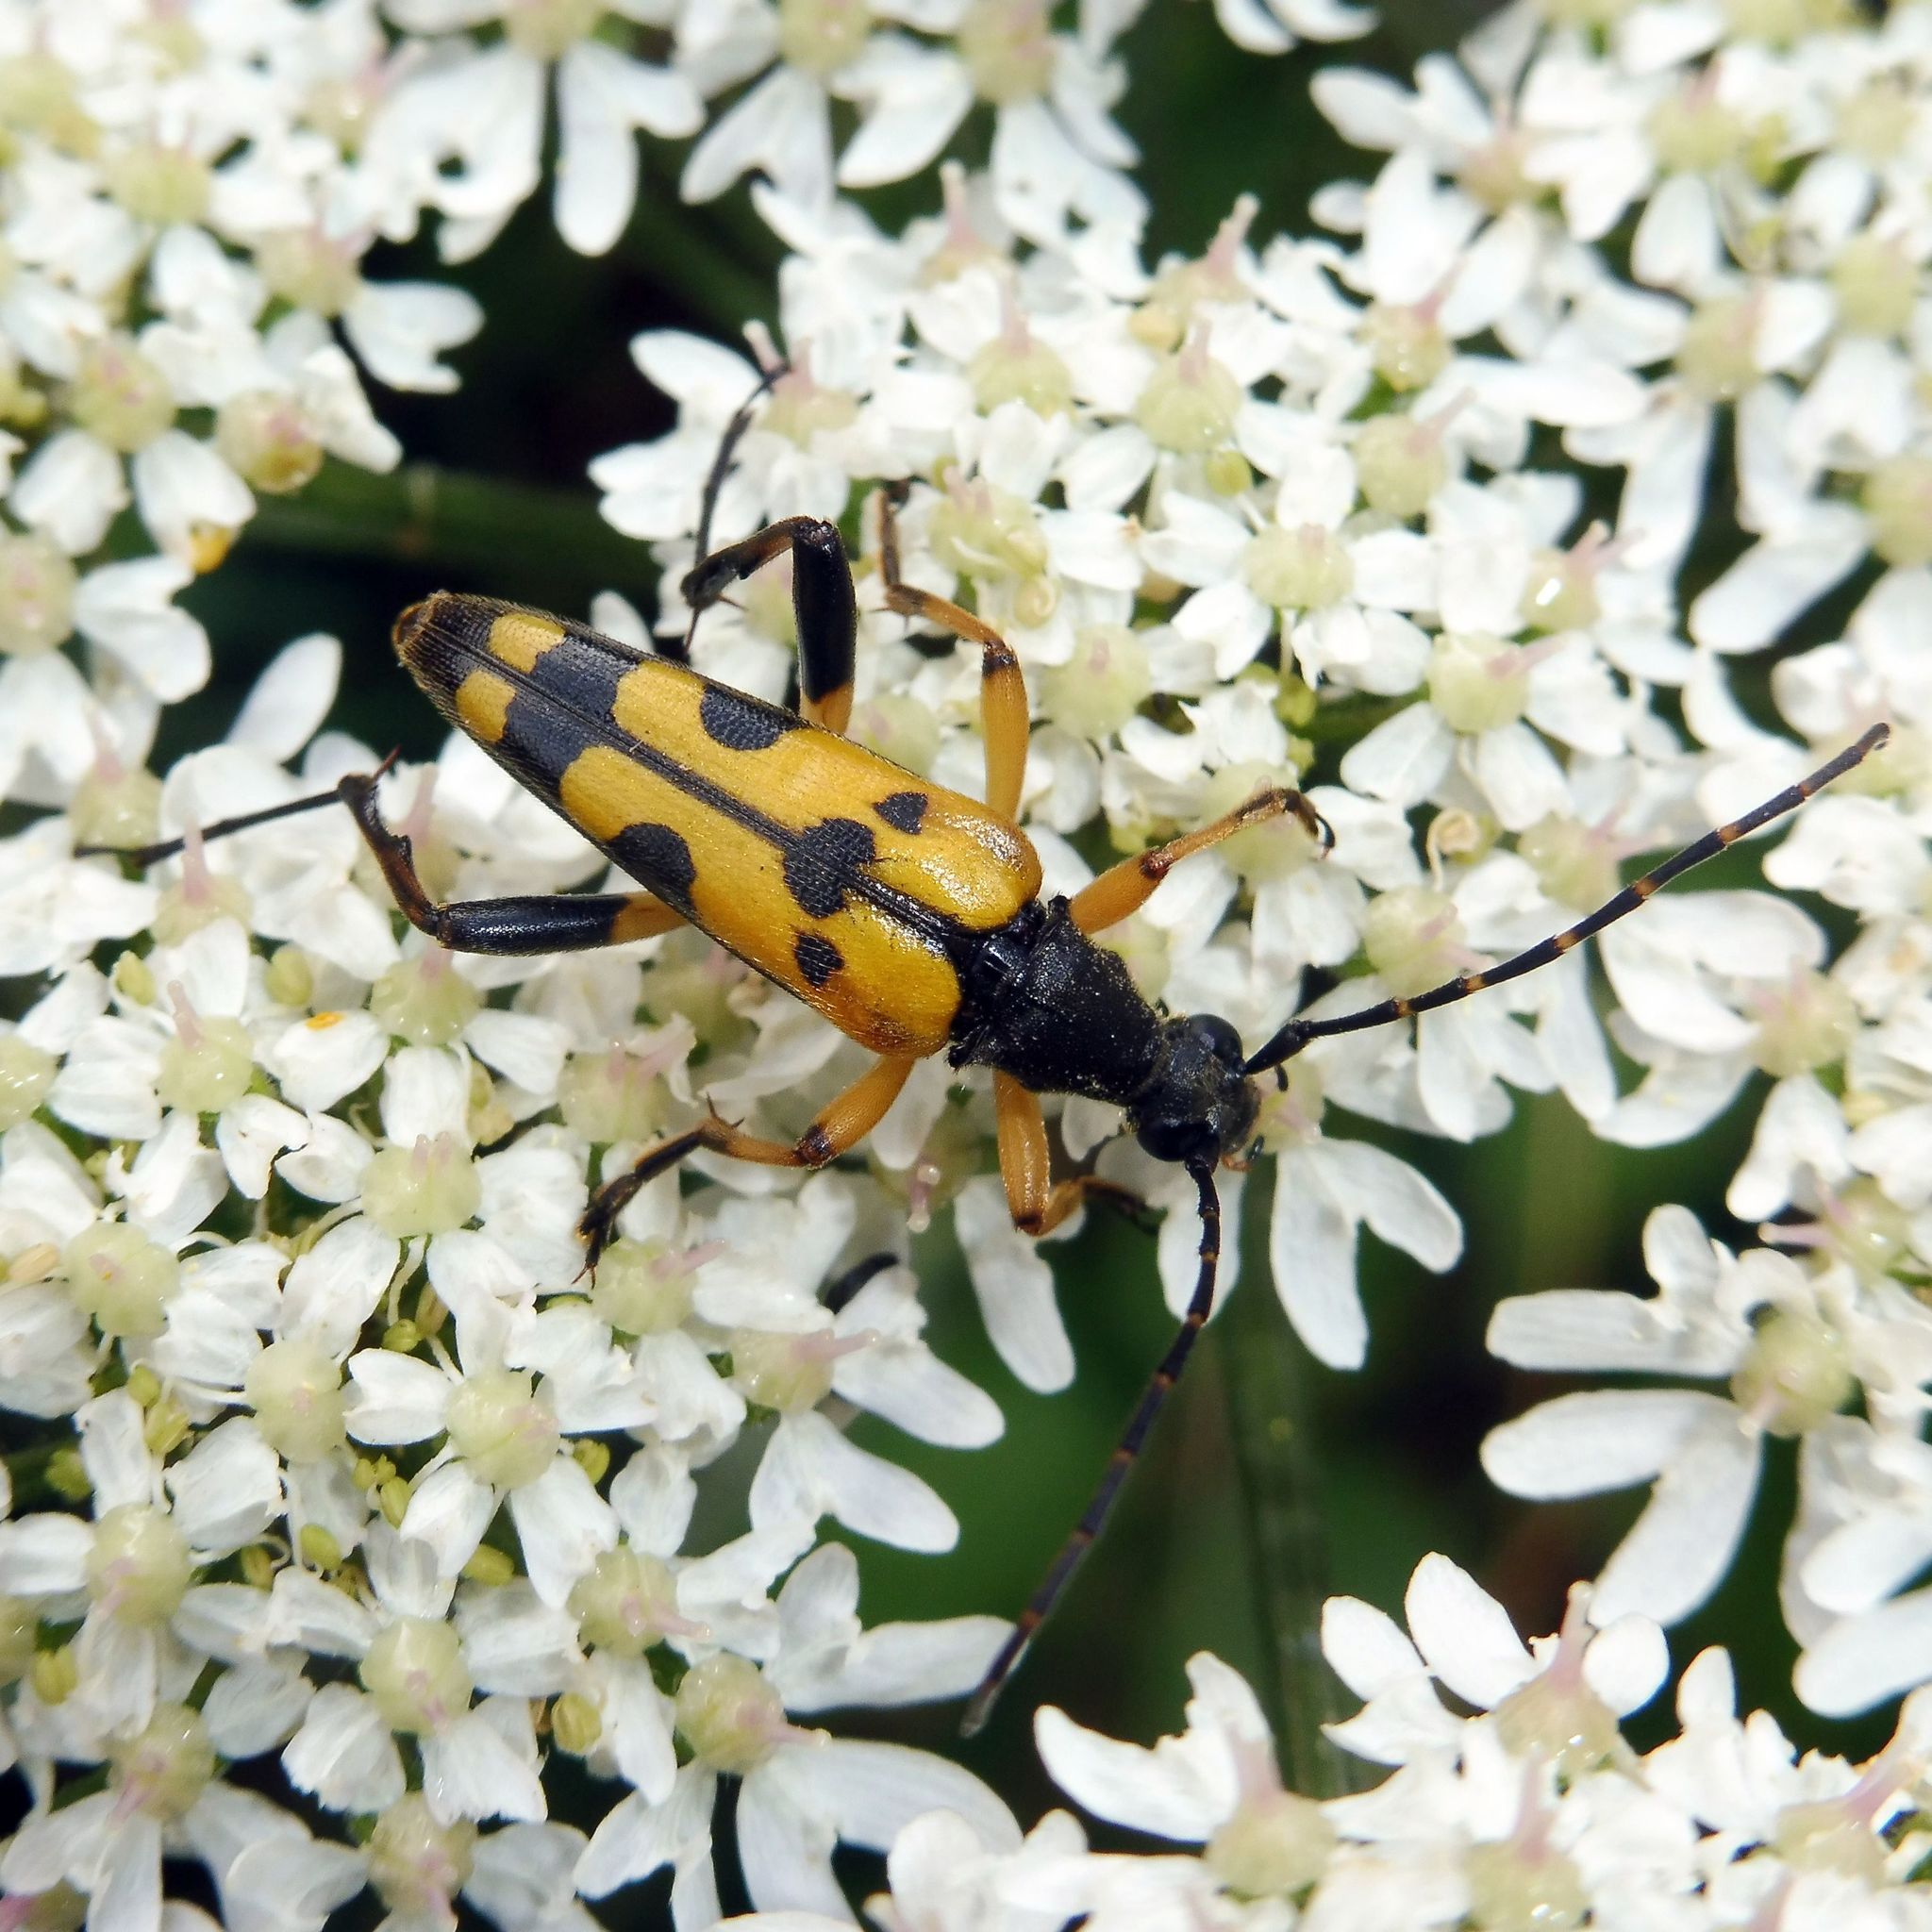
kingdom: Animalia
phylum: Arthropoda
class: Insecta
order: Coleoptera
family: Cerambycidae
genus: Rutpela
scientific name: Rutpela maculata
